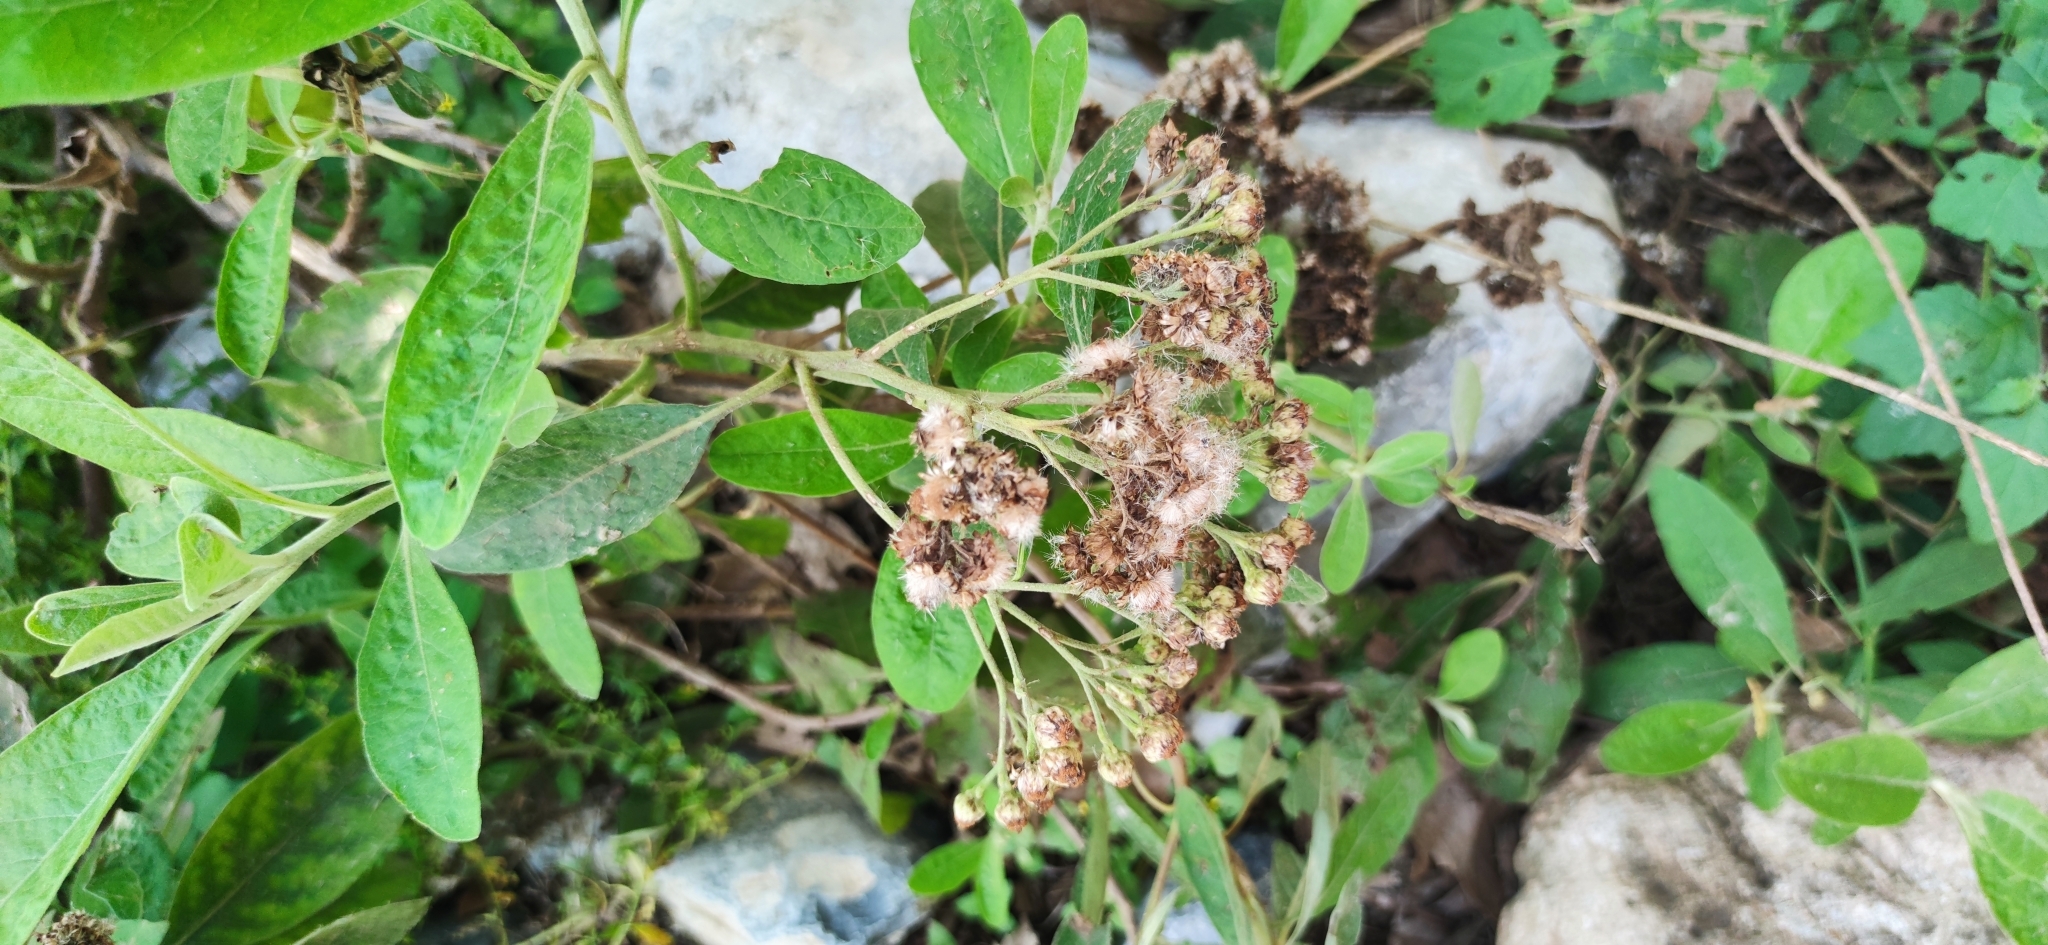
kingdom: Plantae
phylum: Tracheophyta
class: Magnoliopsida
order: Asterales
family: Asteraceae
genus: Verbesina
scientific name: Verbesina persicifolia
